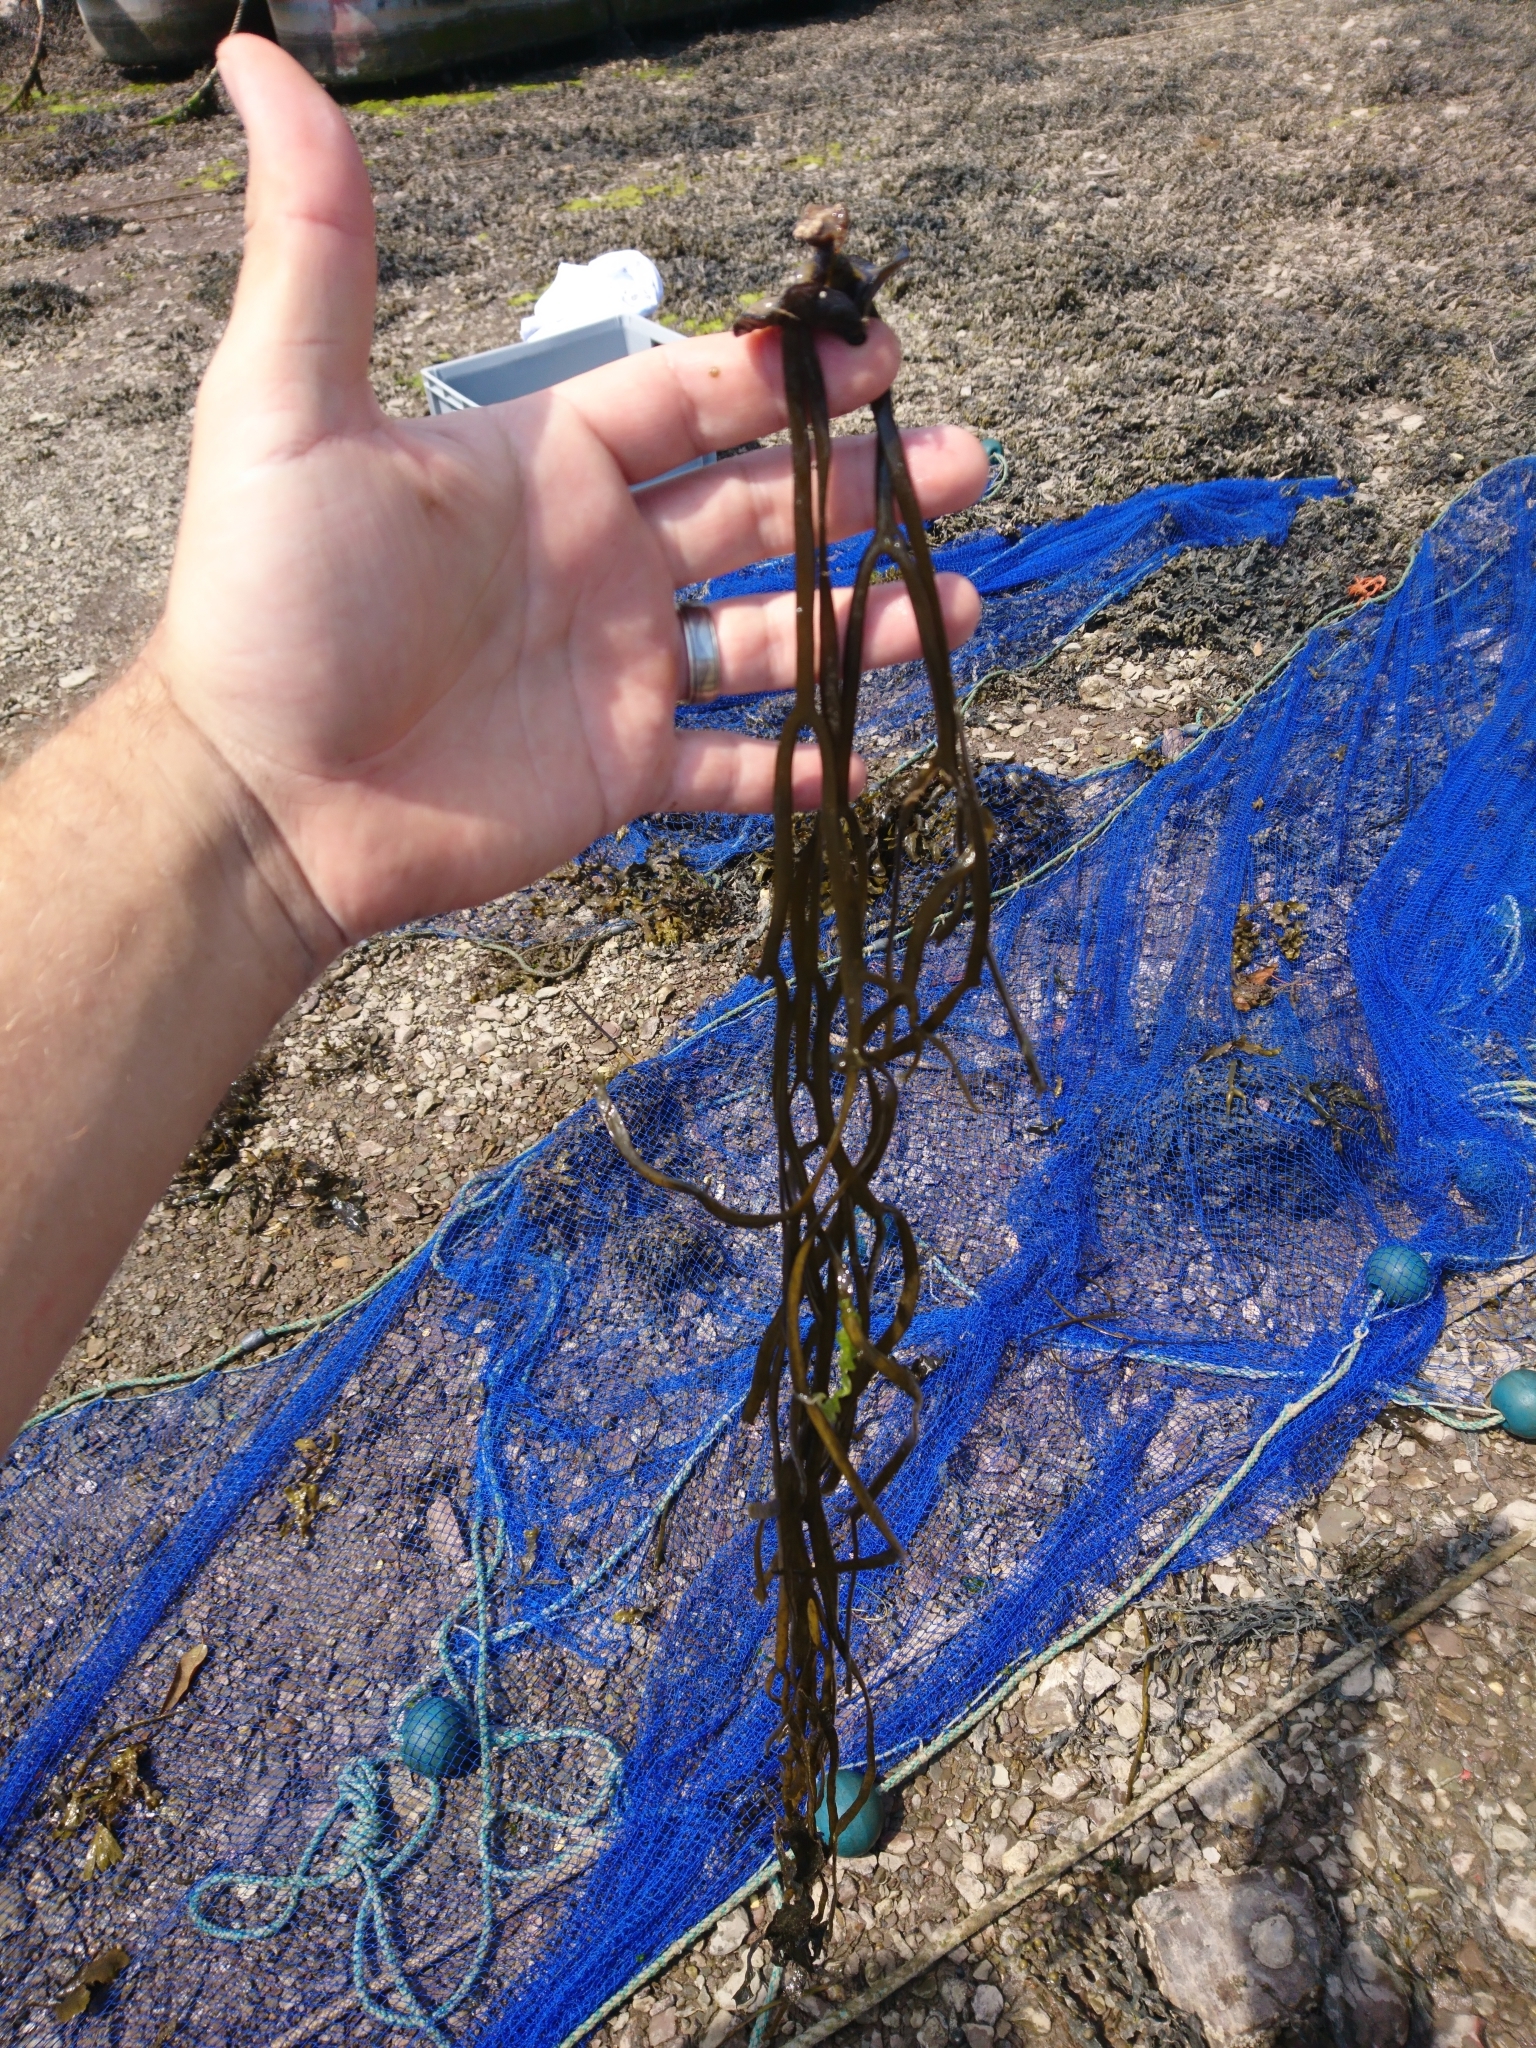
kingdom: Chromista
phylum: Ochrophyta
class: Phaeophyceae
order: Fucales
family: Himanthaliaceae
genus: Himanthalia
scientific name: Himanthalia elongata
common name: Sea-thong
